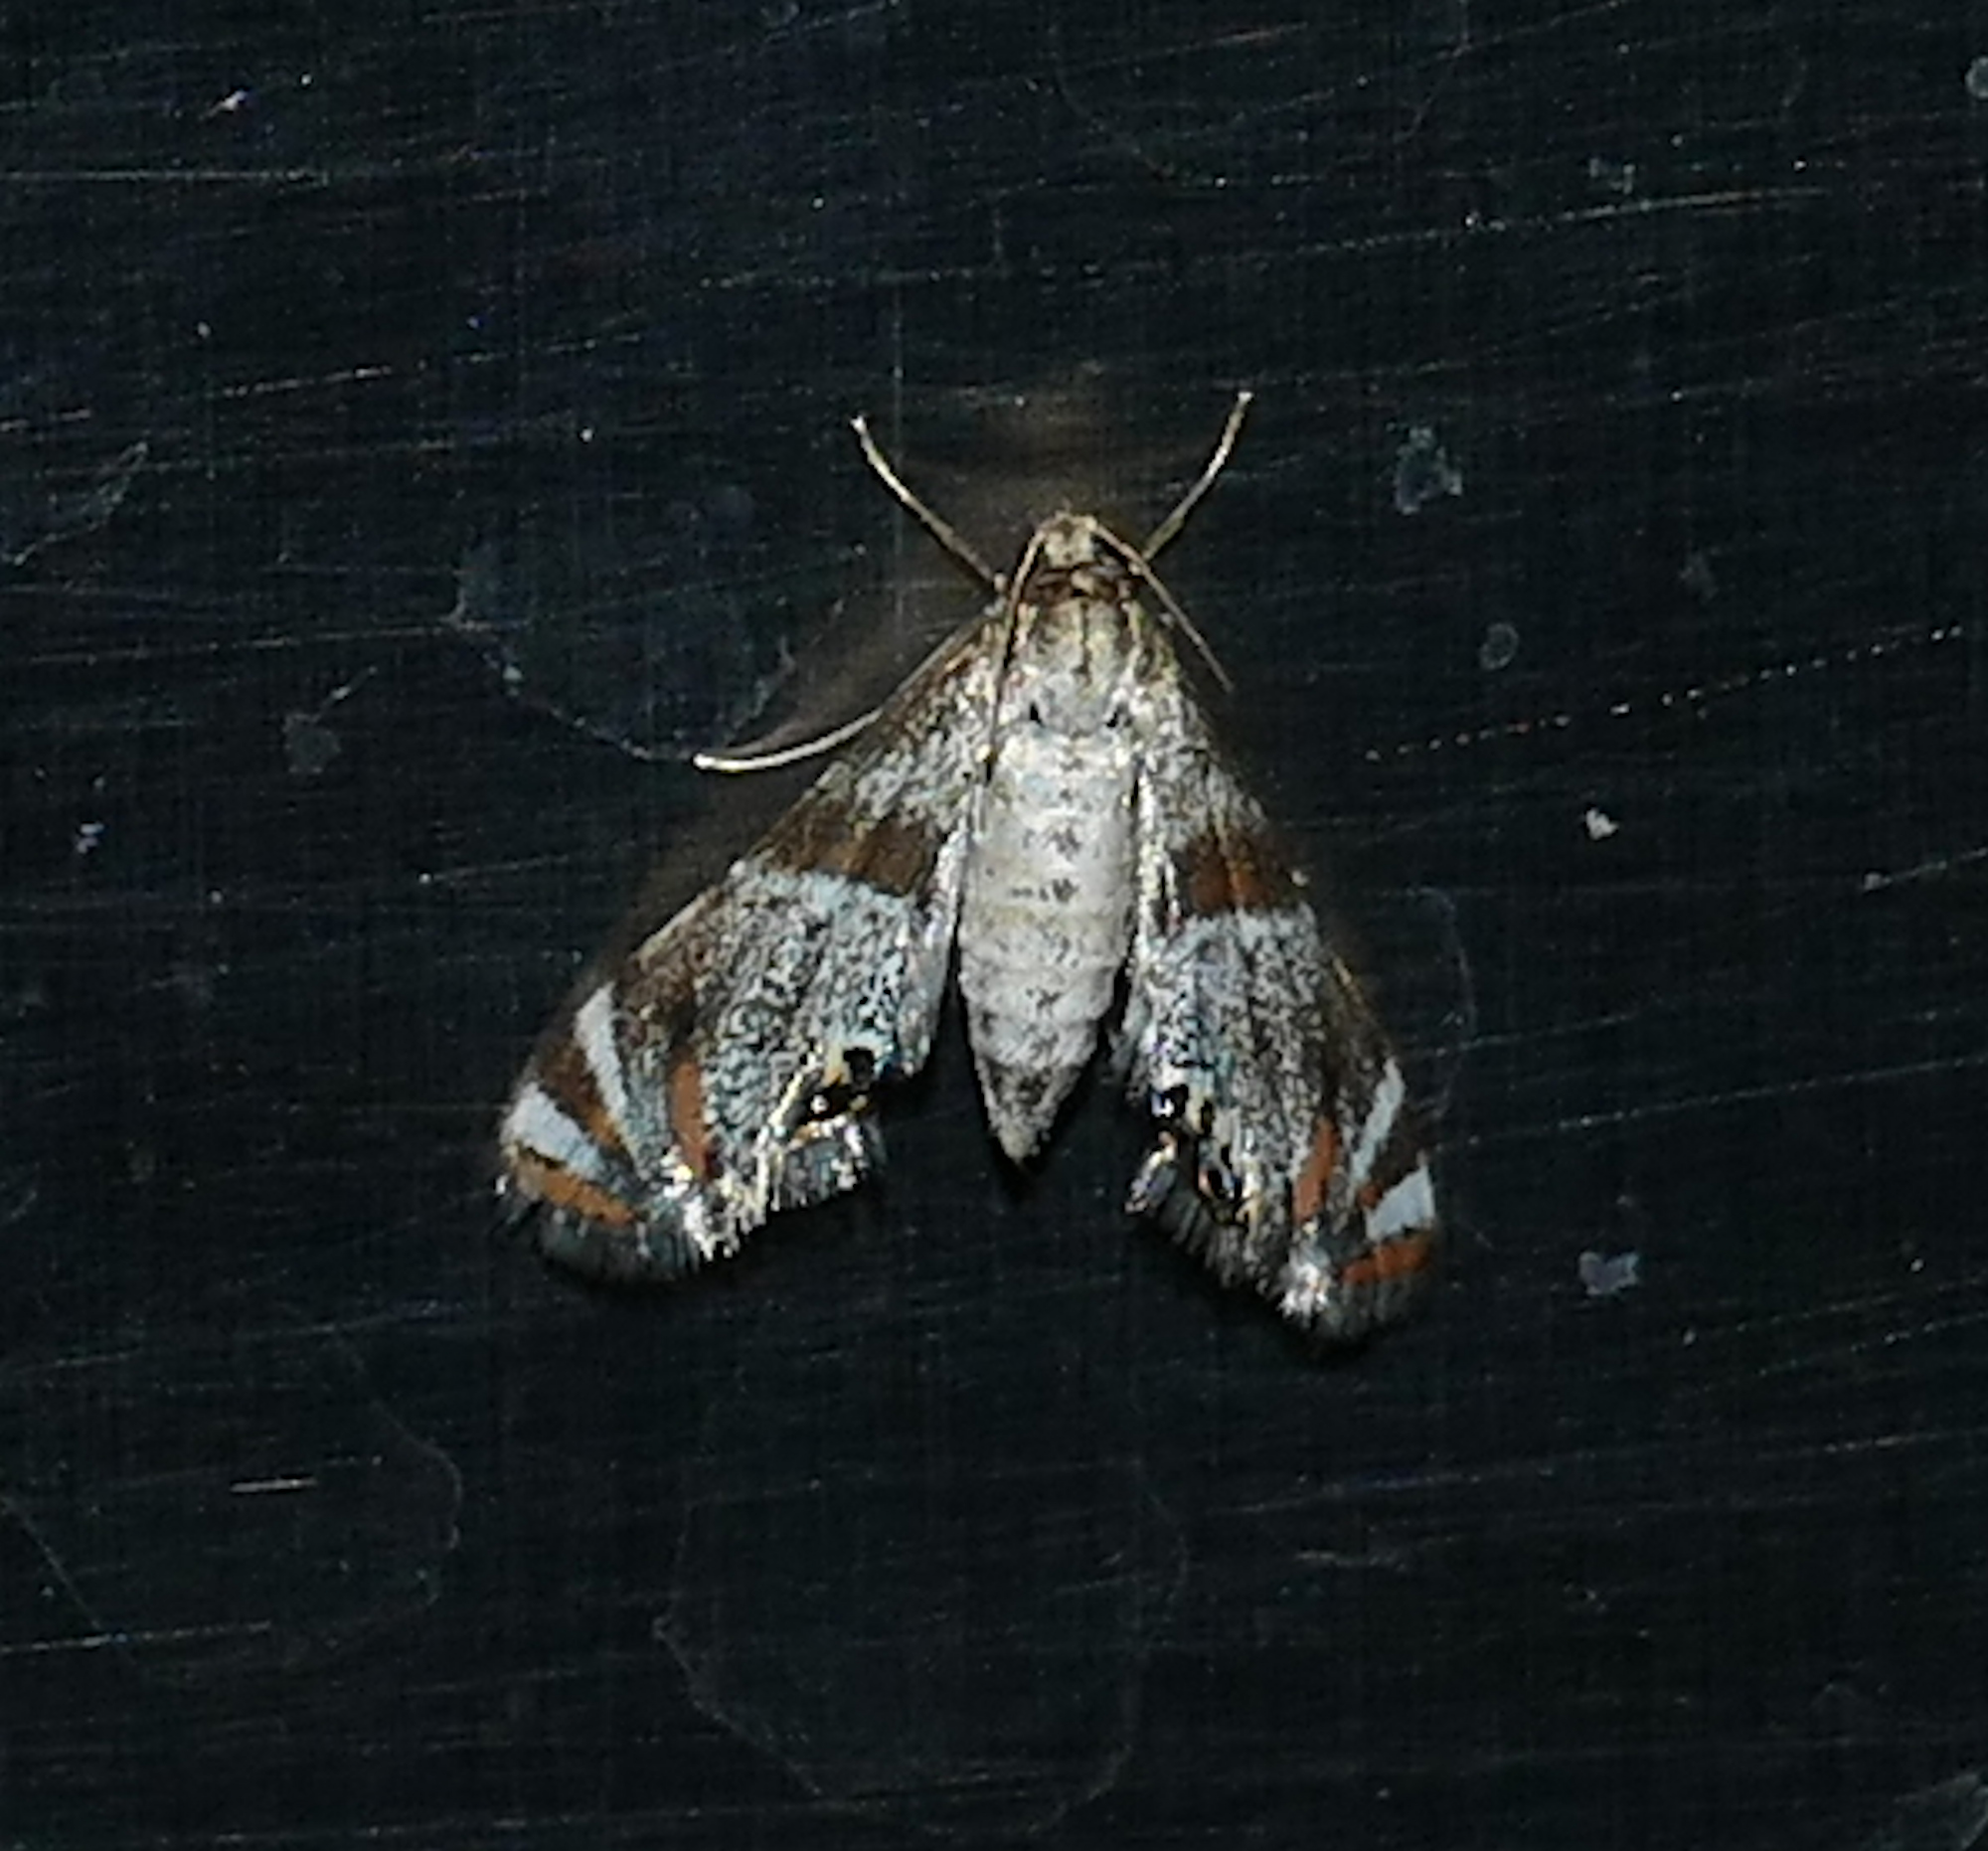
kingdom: Animalia
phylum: Arthropoda
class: Insecta
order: Lepidoptera
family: Crambidae
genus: Petrophila
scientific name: Petrophila jaliscalis
